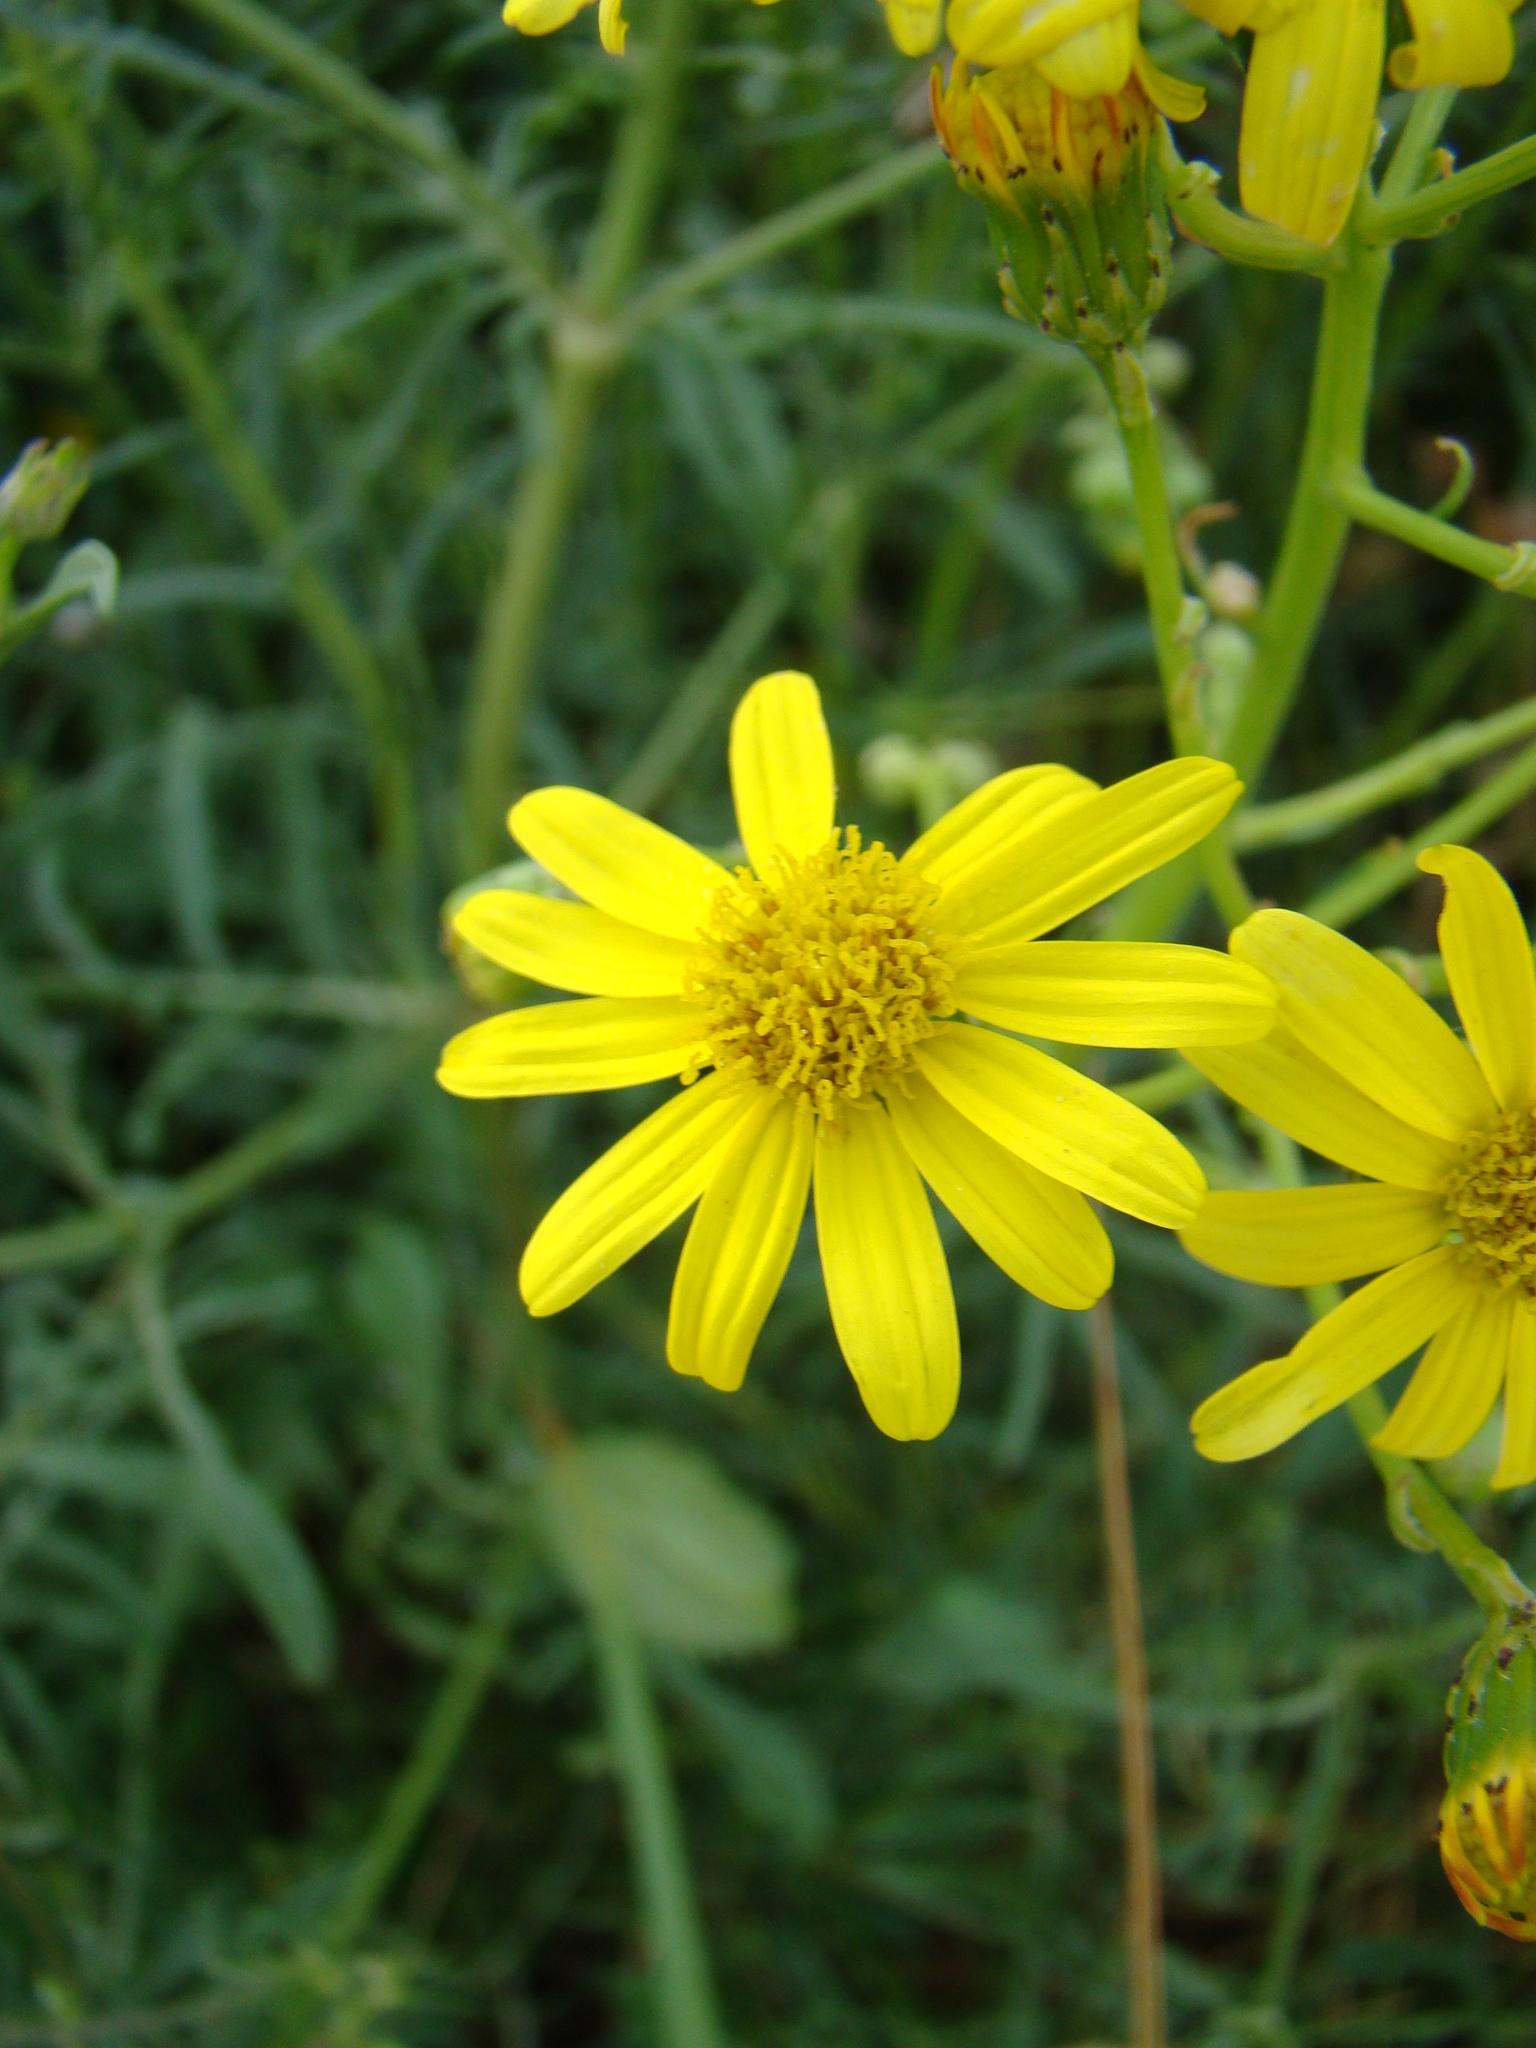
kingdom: Plantae
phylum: Tracheophyta
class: Magnoliopsida
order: Asterales
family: Asteraceae
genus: Senecio
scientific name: Senecio inaequidens
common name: Narrow-leaved ragwort
